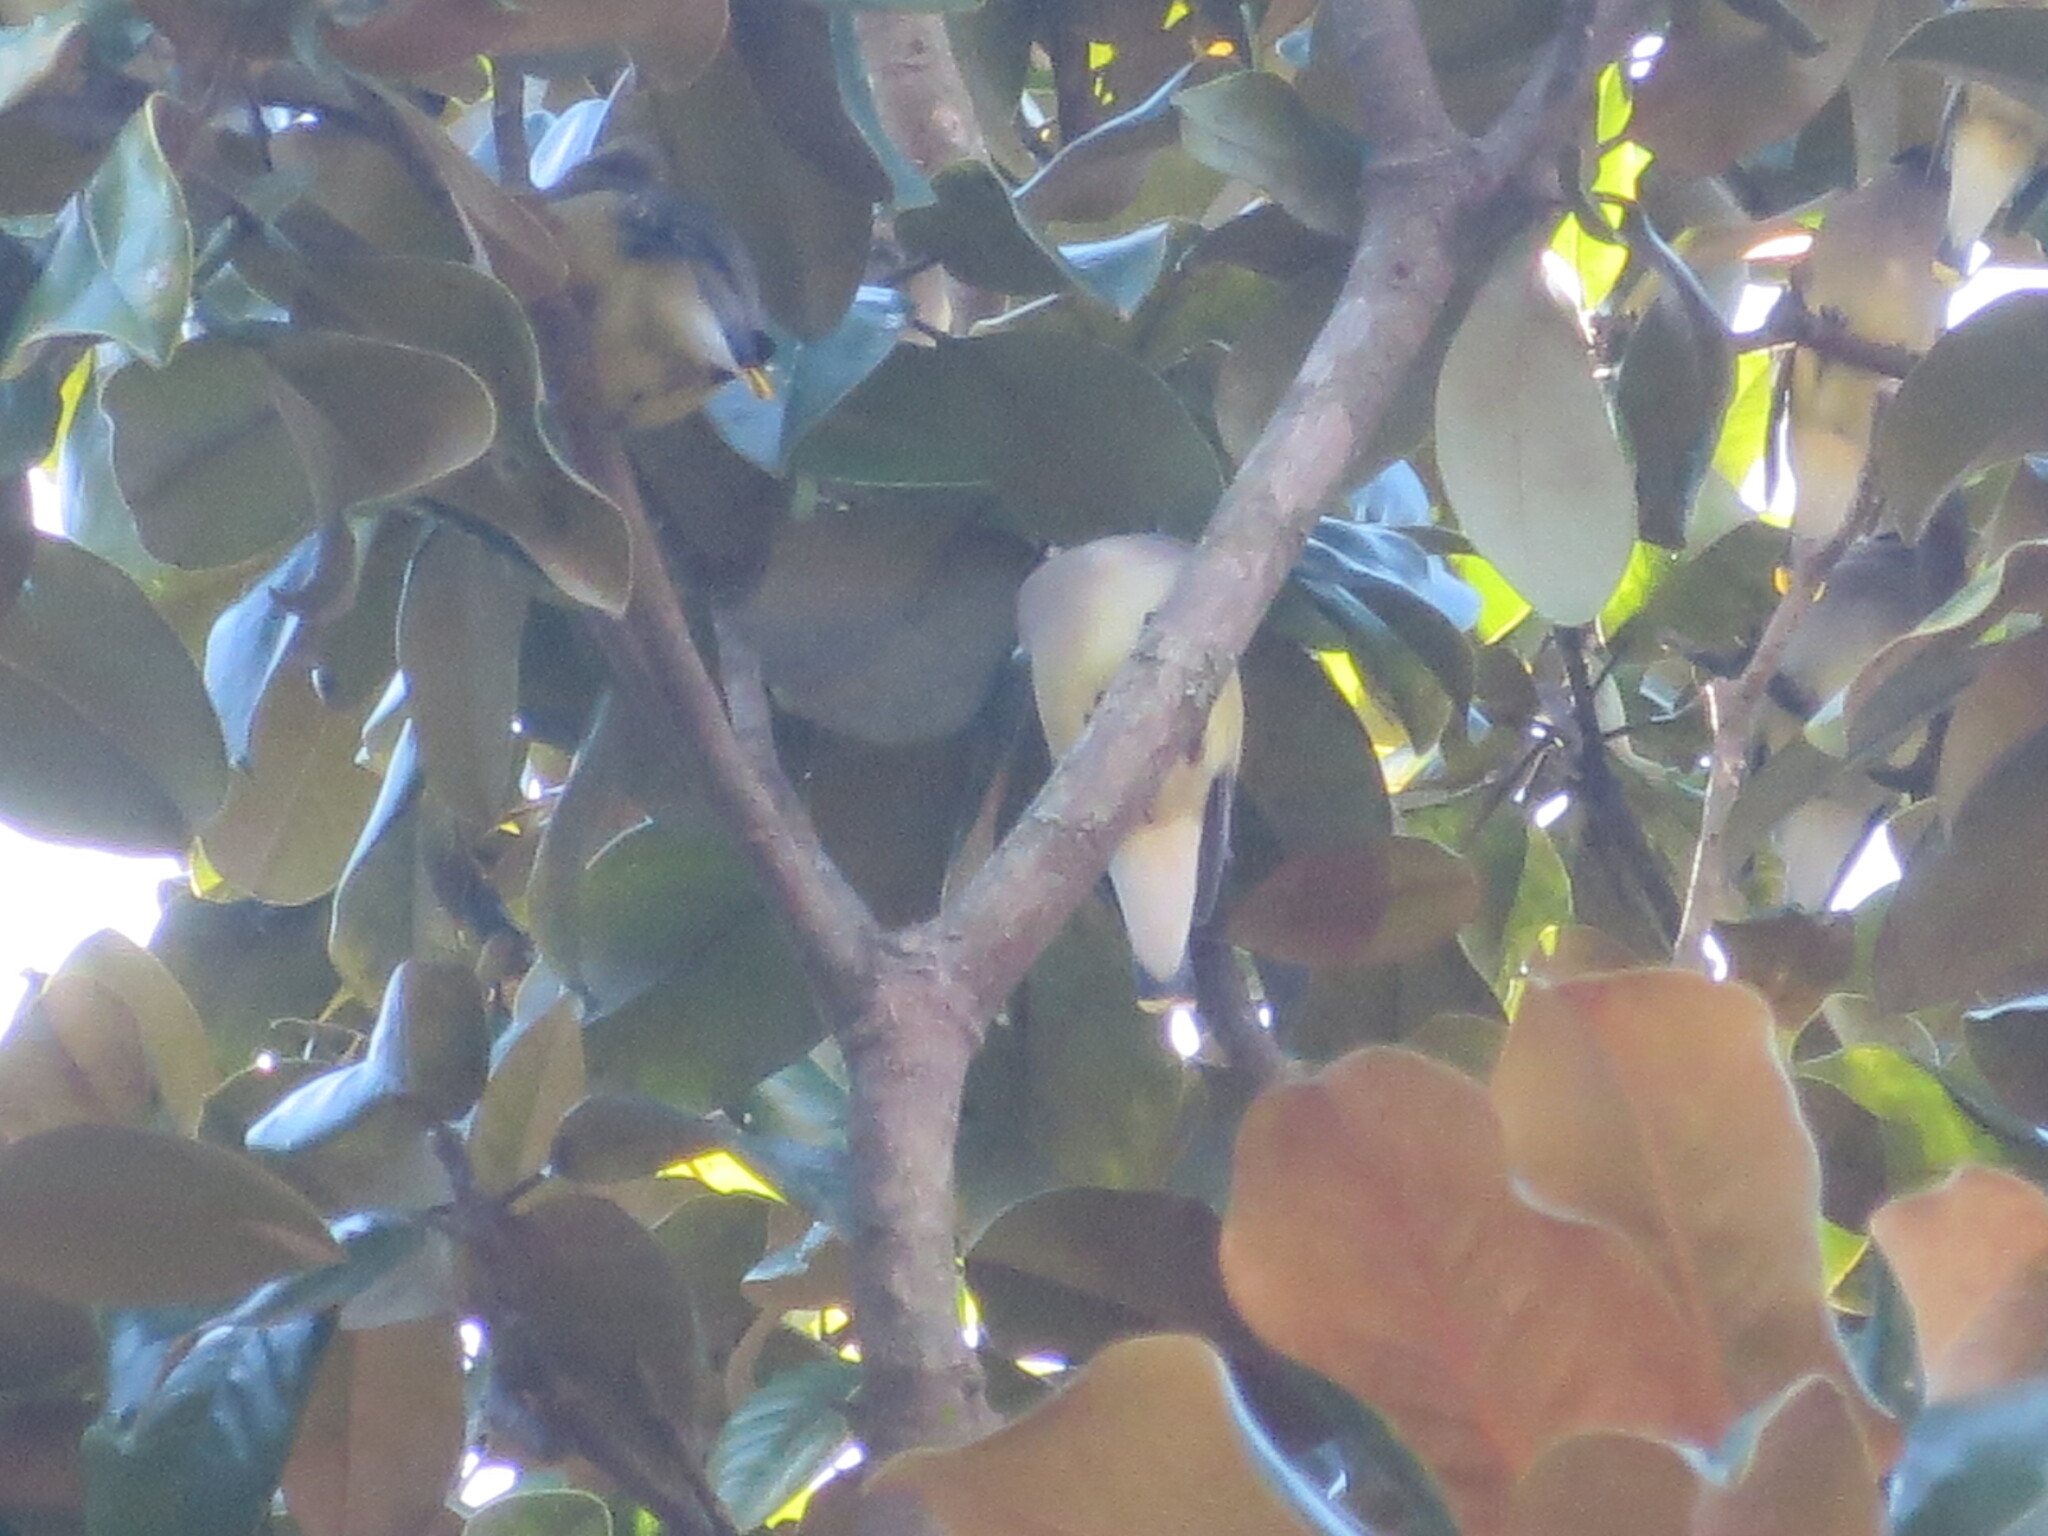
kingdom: Animalia
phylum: Chordata
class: Aves
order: Passeriformes
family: Bombycillidae
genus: Bombycilla
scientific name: Bombycilla cedrorum
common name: Cedar waxwing
